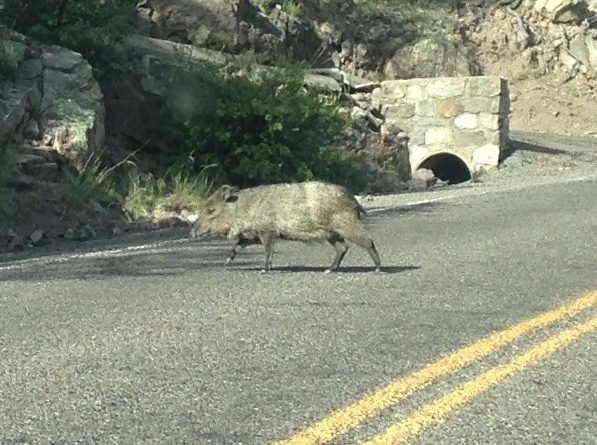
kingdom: Animalia
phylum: Chordata
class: Mammalia
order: Artiodactyla
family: Tayassuidae
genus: Pecari
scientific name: Pecari tajacu
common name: Collared peccary
